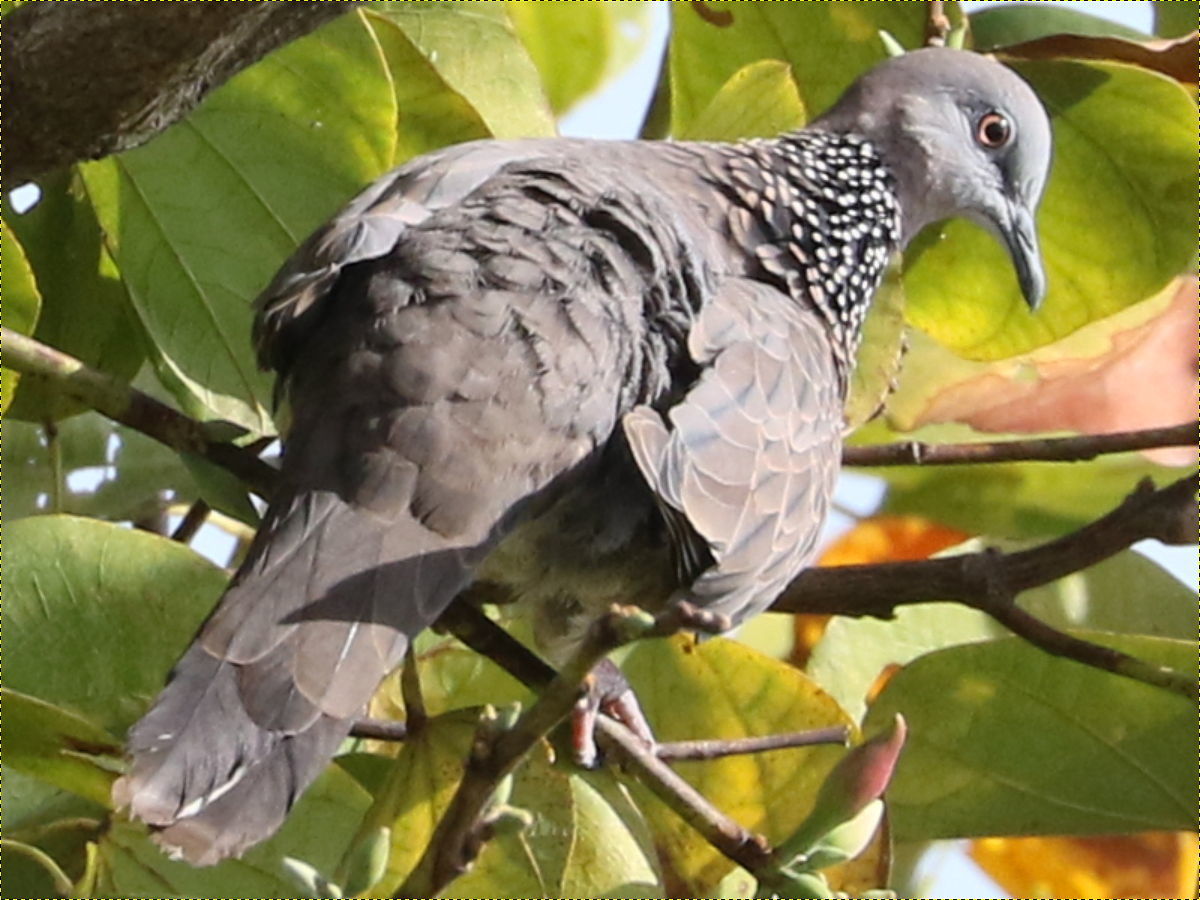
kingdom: Animalia
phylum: Chordata
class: Aves
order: Columbiformes
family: Columbidae
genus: Spilopelia
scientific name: Spilopelia chinensis
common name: Spotted dove
